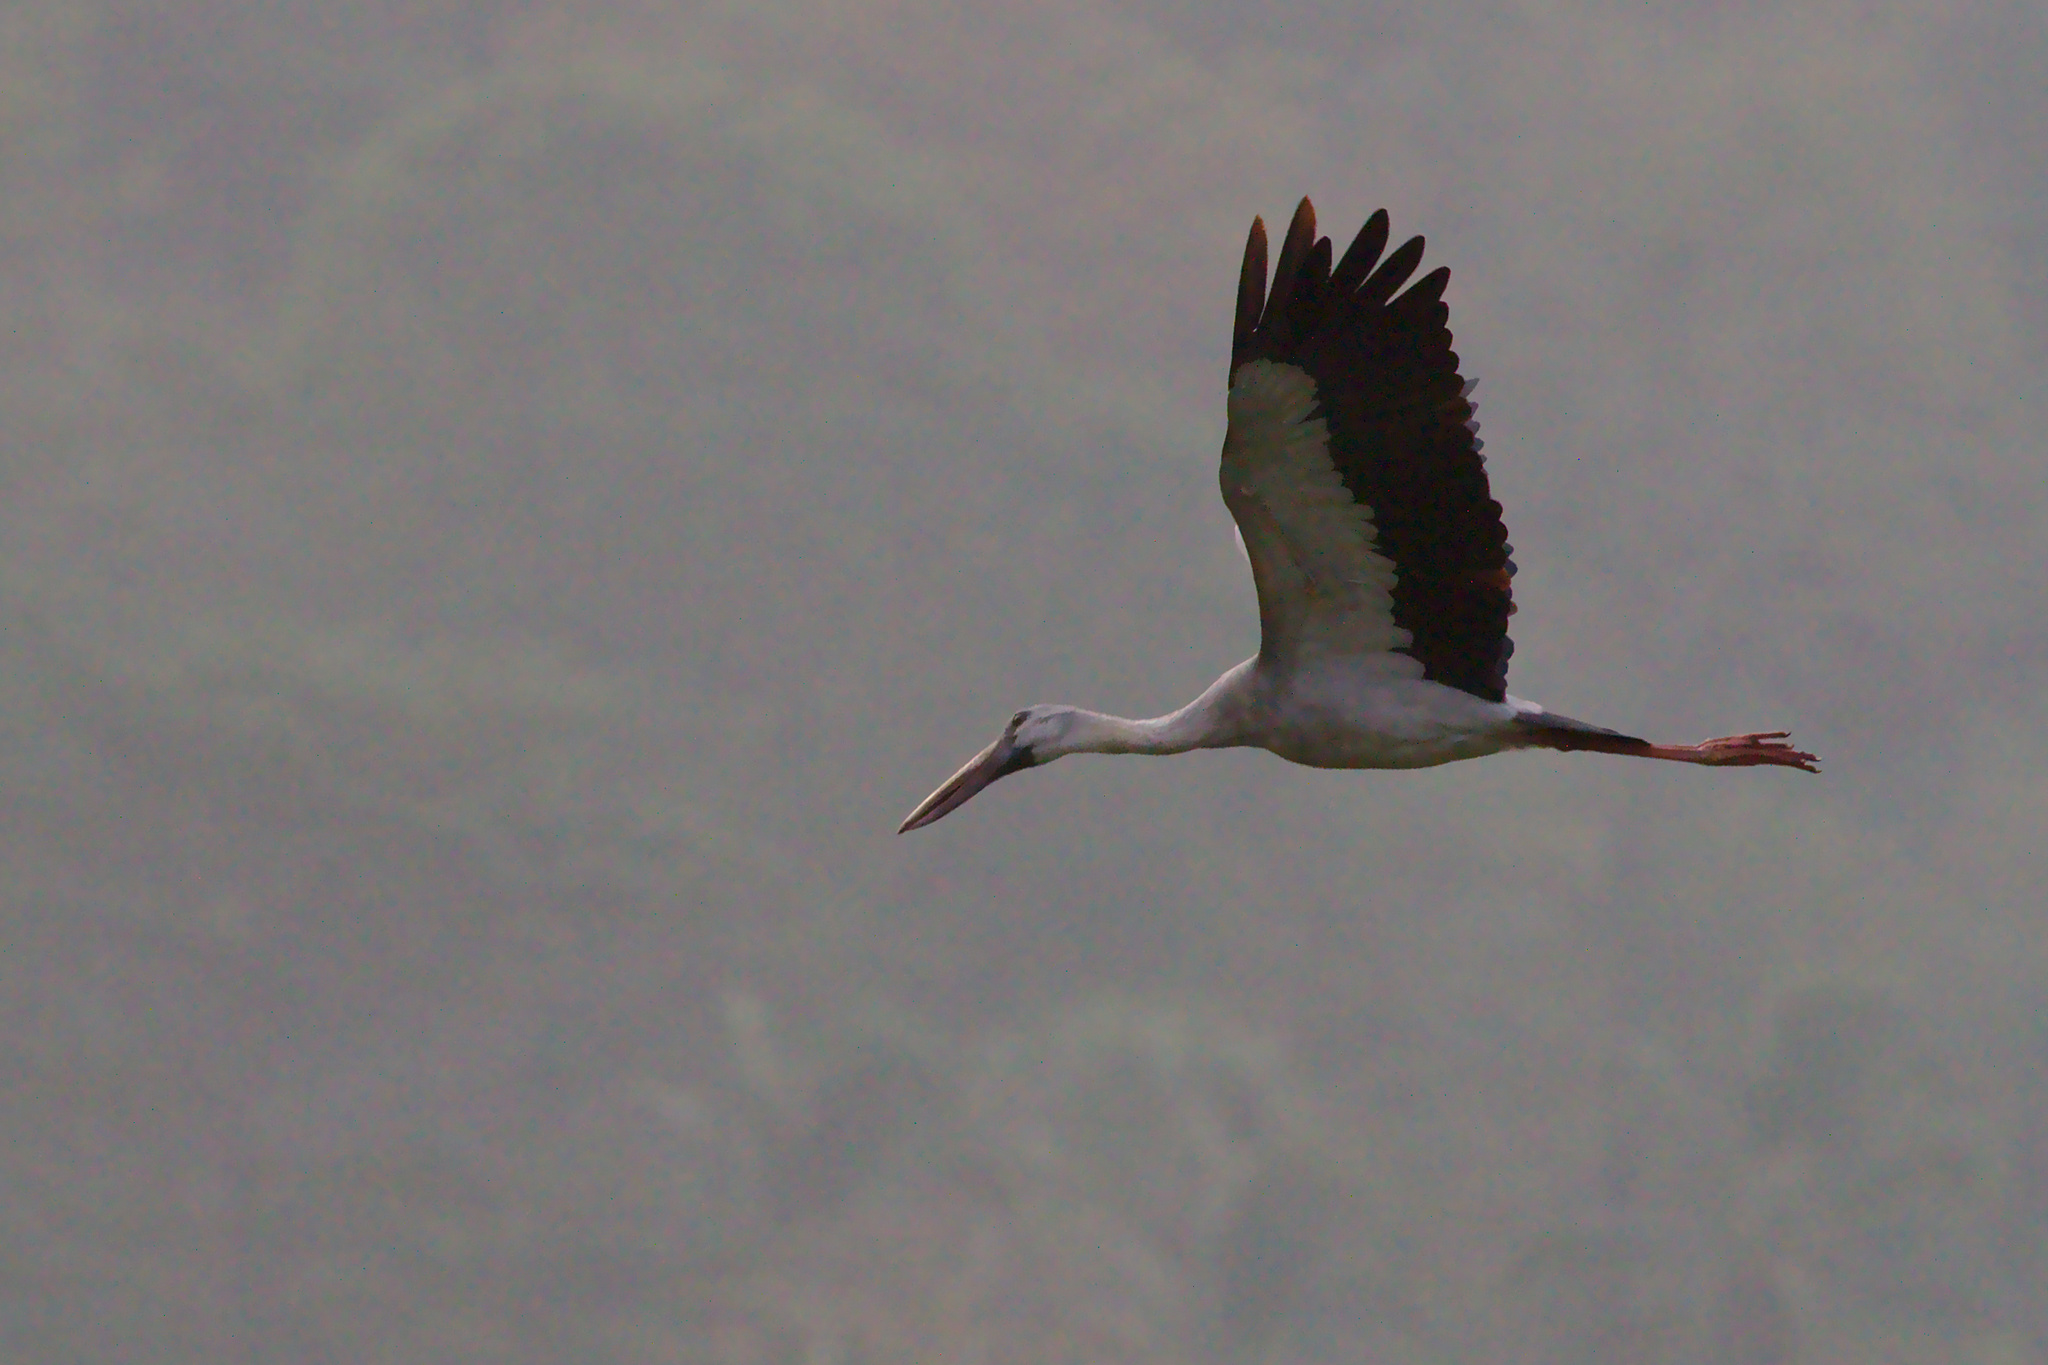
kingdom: Animalia
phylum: Chordata
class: Aves
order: Ciconiiformes
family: Ciconiidae
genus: Anastomus
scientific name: Anastomus oscitans
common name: Asian openbill
